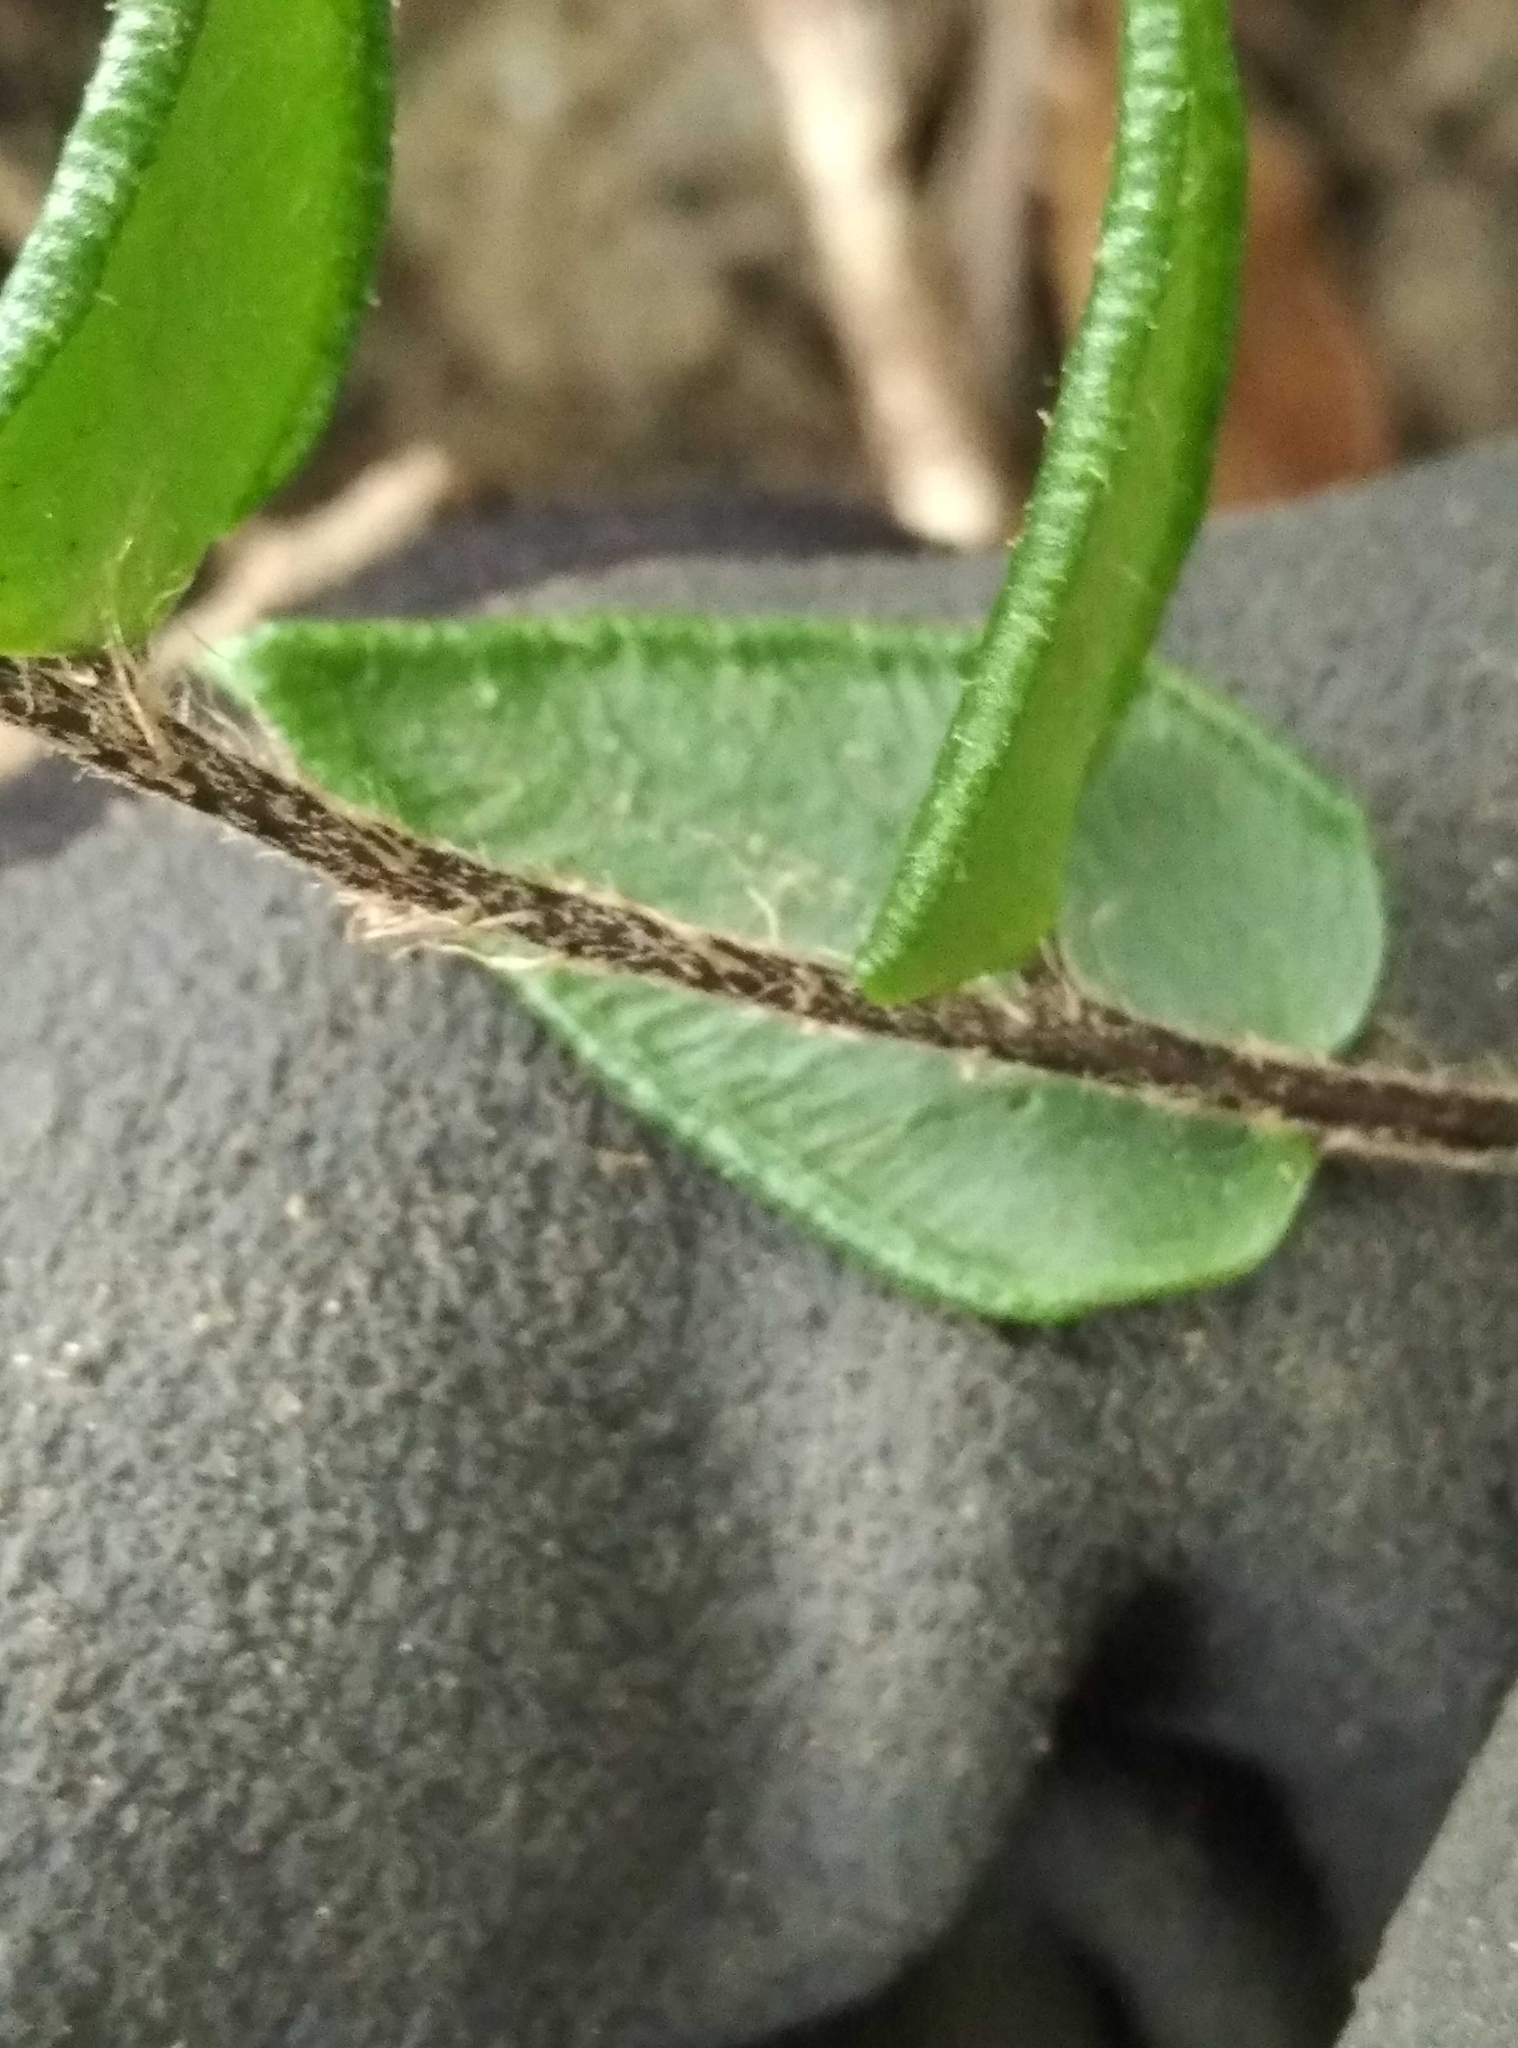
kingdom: Plantae
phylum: Tracheophyta
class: Polypodiopsida
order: Polypodiales
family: Pteridaceae
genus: Pellaea
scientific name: Pellaea calidirupium
